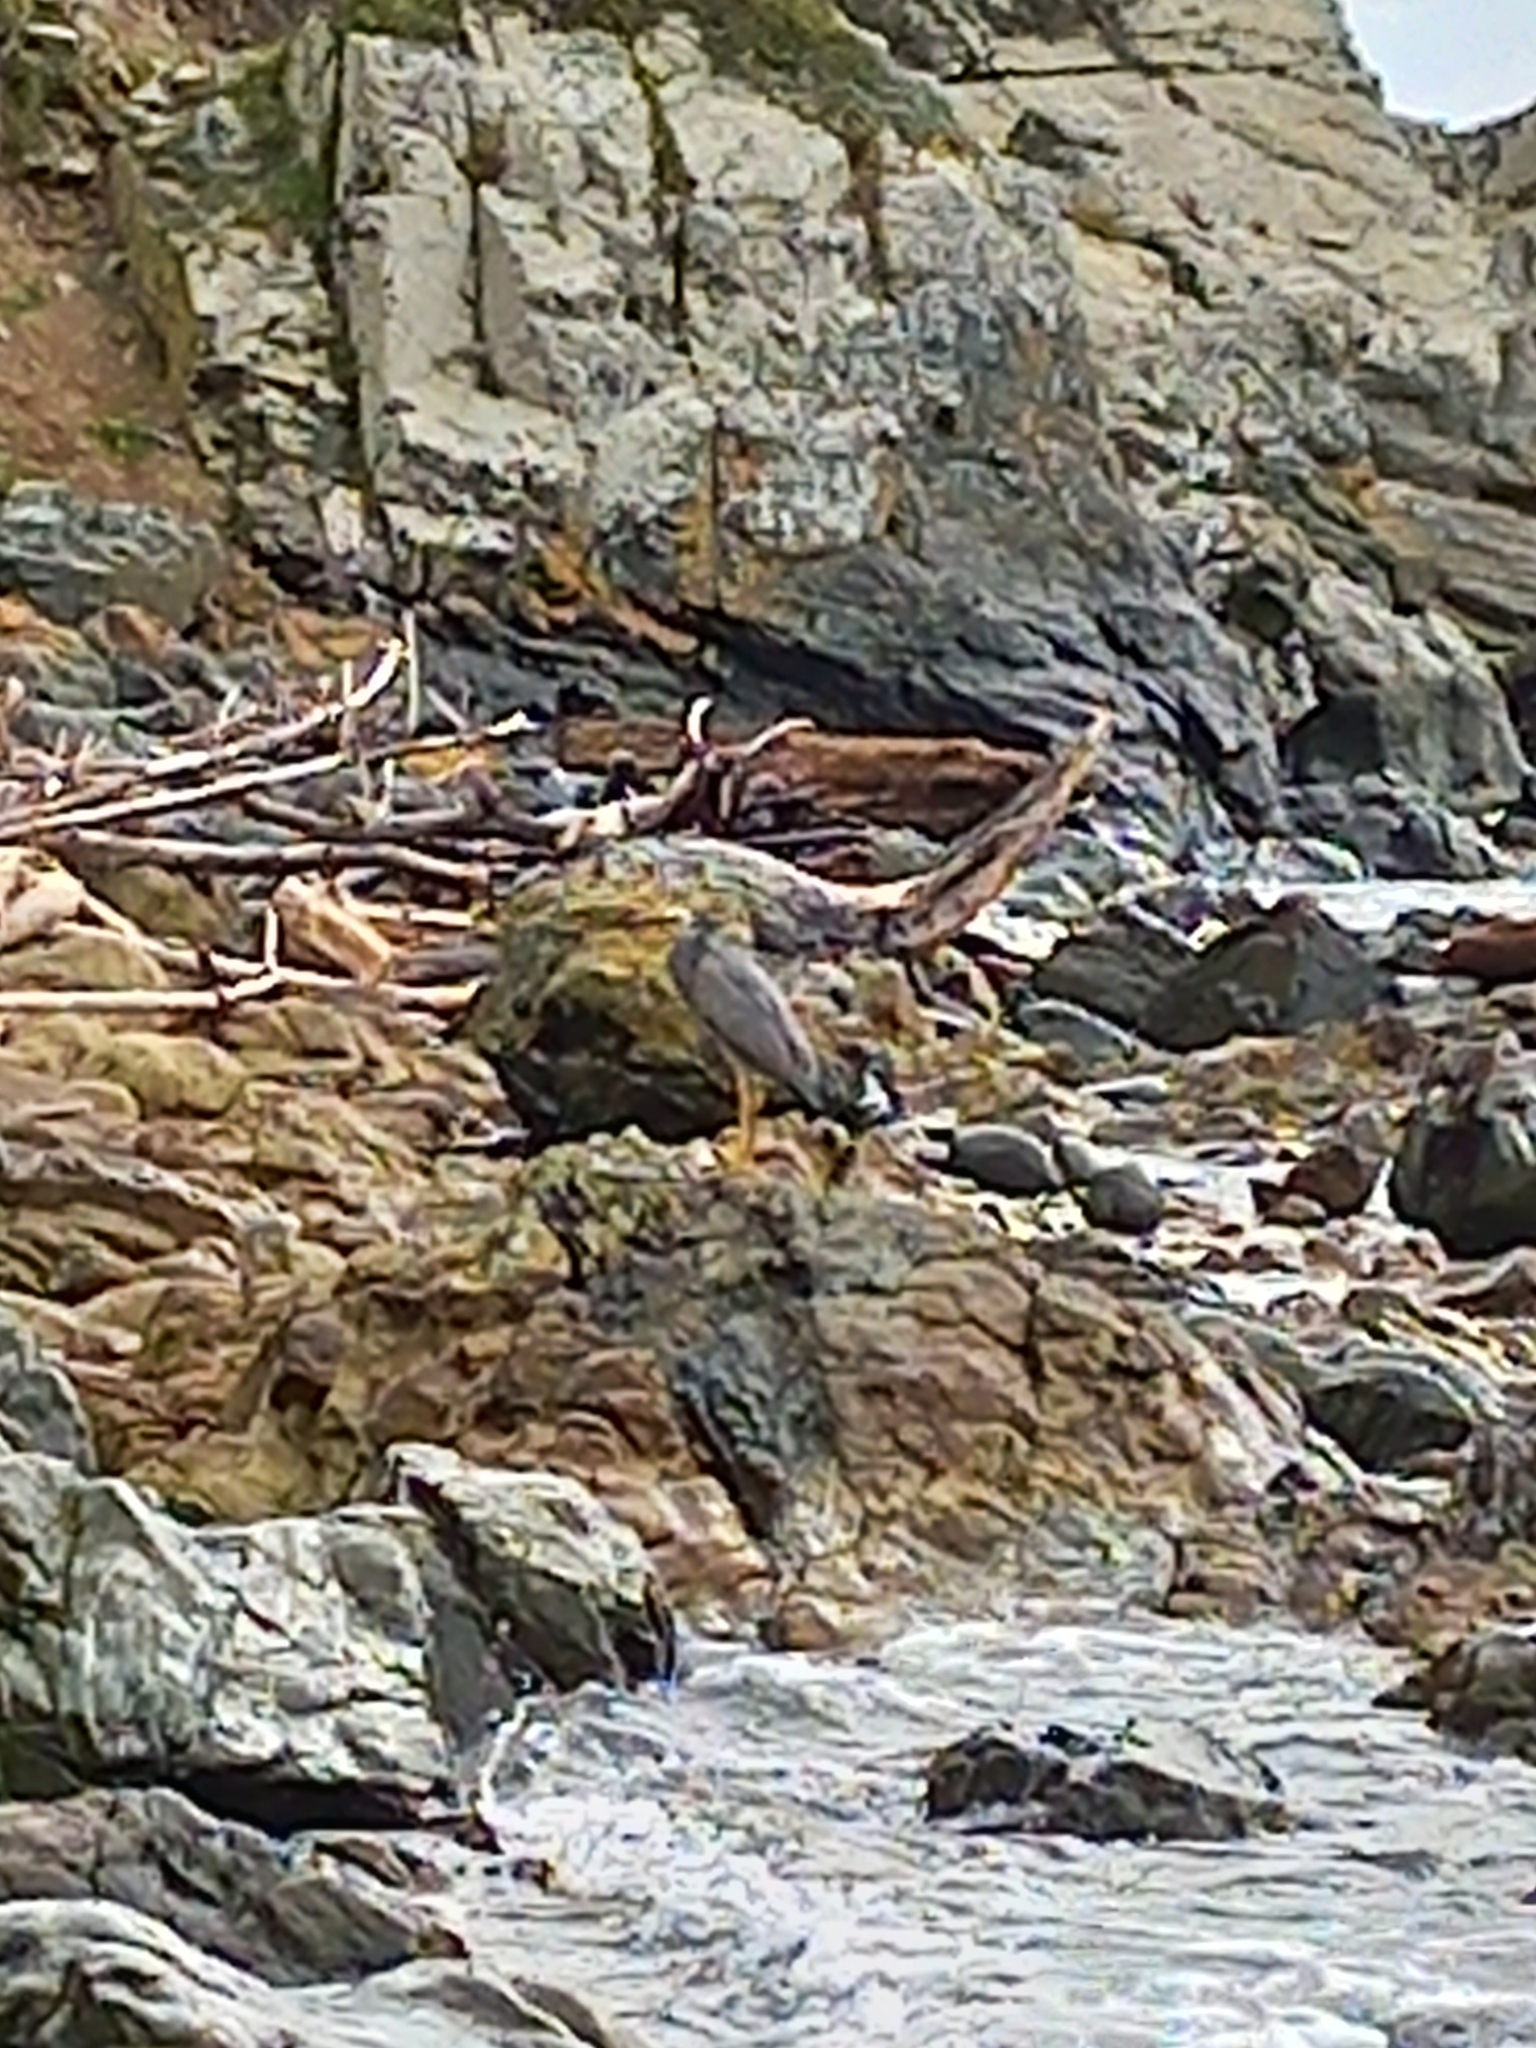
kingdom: Animalia
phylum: Chordata
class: Aves
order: Pelecaniformes
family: Ardeidae
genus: Egretta
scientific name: Egretta novaehollandiae
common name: White-faced heron
